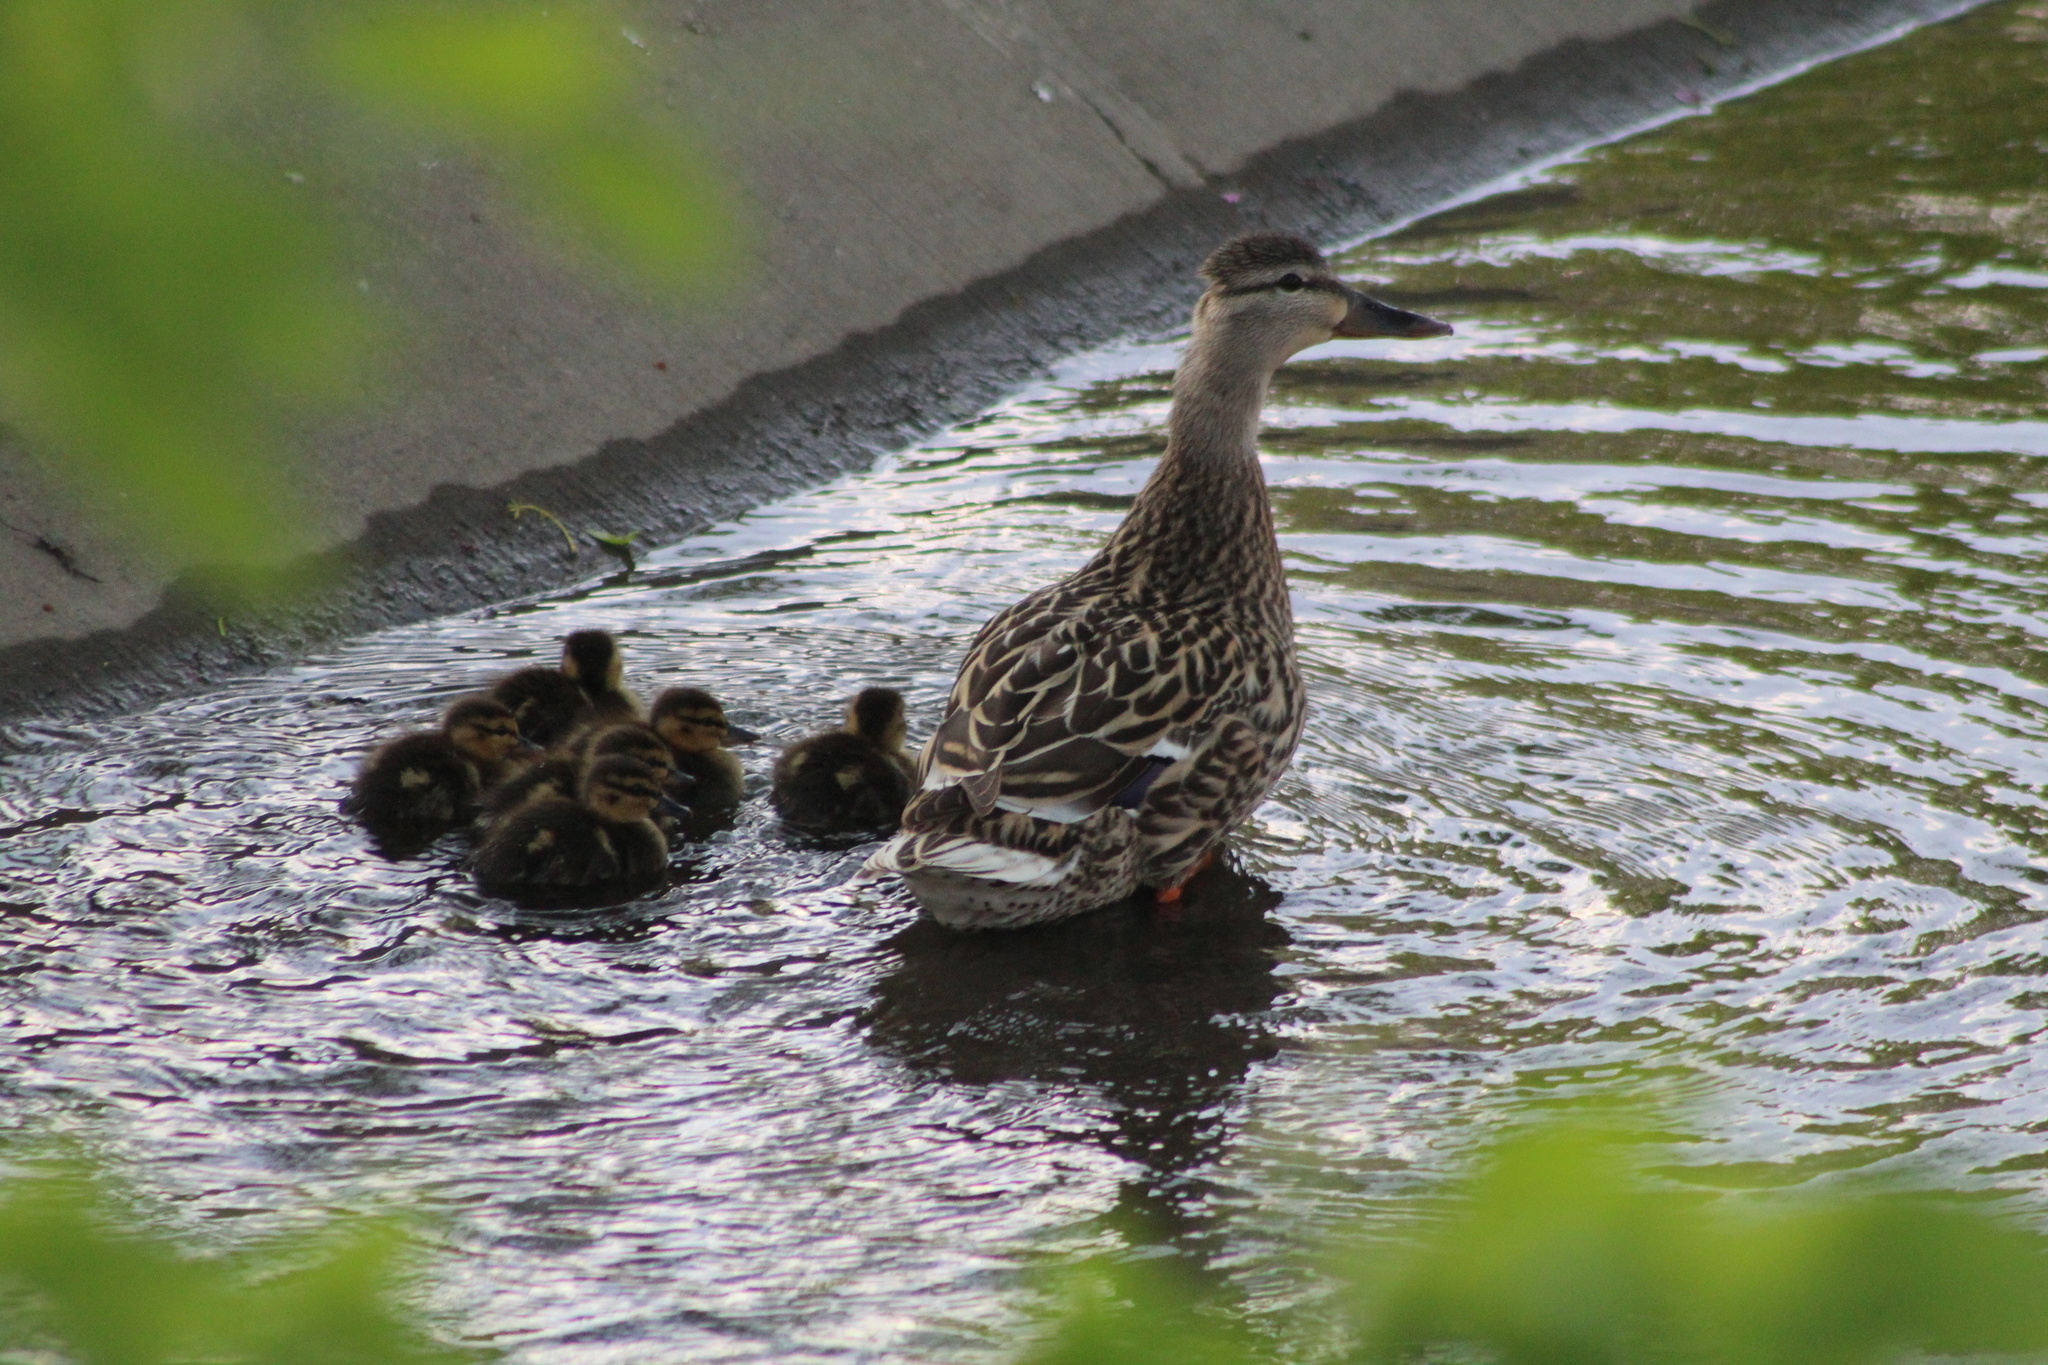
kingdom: Animalia
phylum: Chordata
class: Aves
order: Anseriformes
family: Anatidae
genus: Anas
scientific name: Anas platyrhynchos
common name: Mallard
